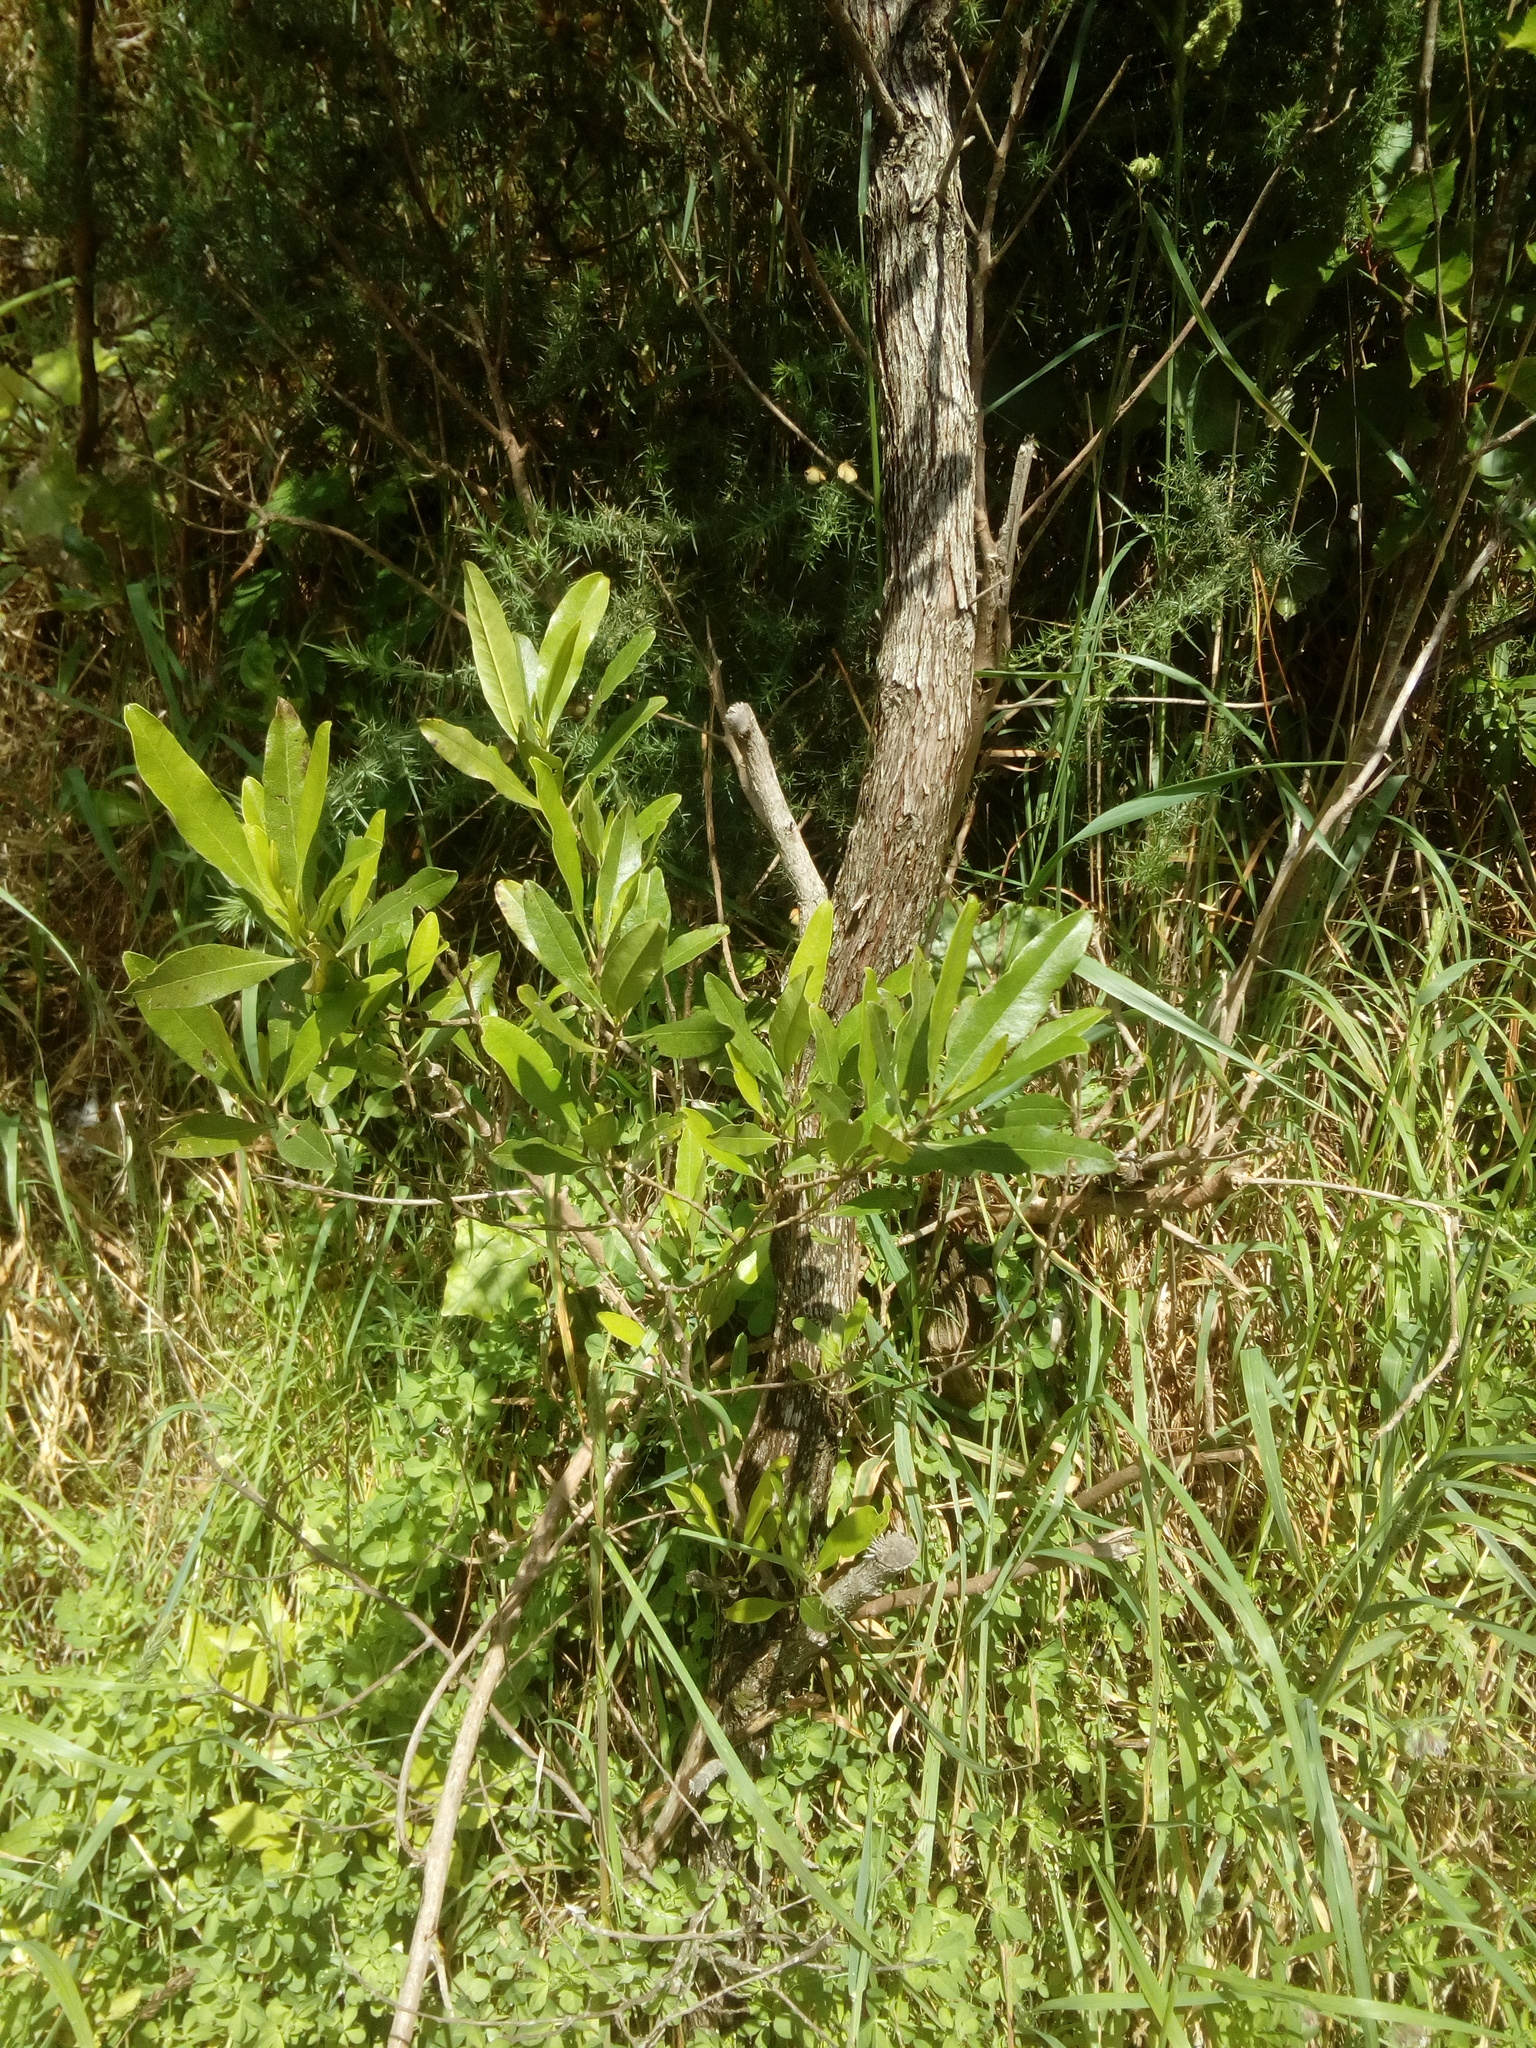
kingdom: Plantae
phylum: Tracheophyta
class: Magnoliopsida
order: Sapindales
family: Sapindaceae
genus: Dodonaea
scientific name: Dodonaea viscosa
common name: Hopbush
